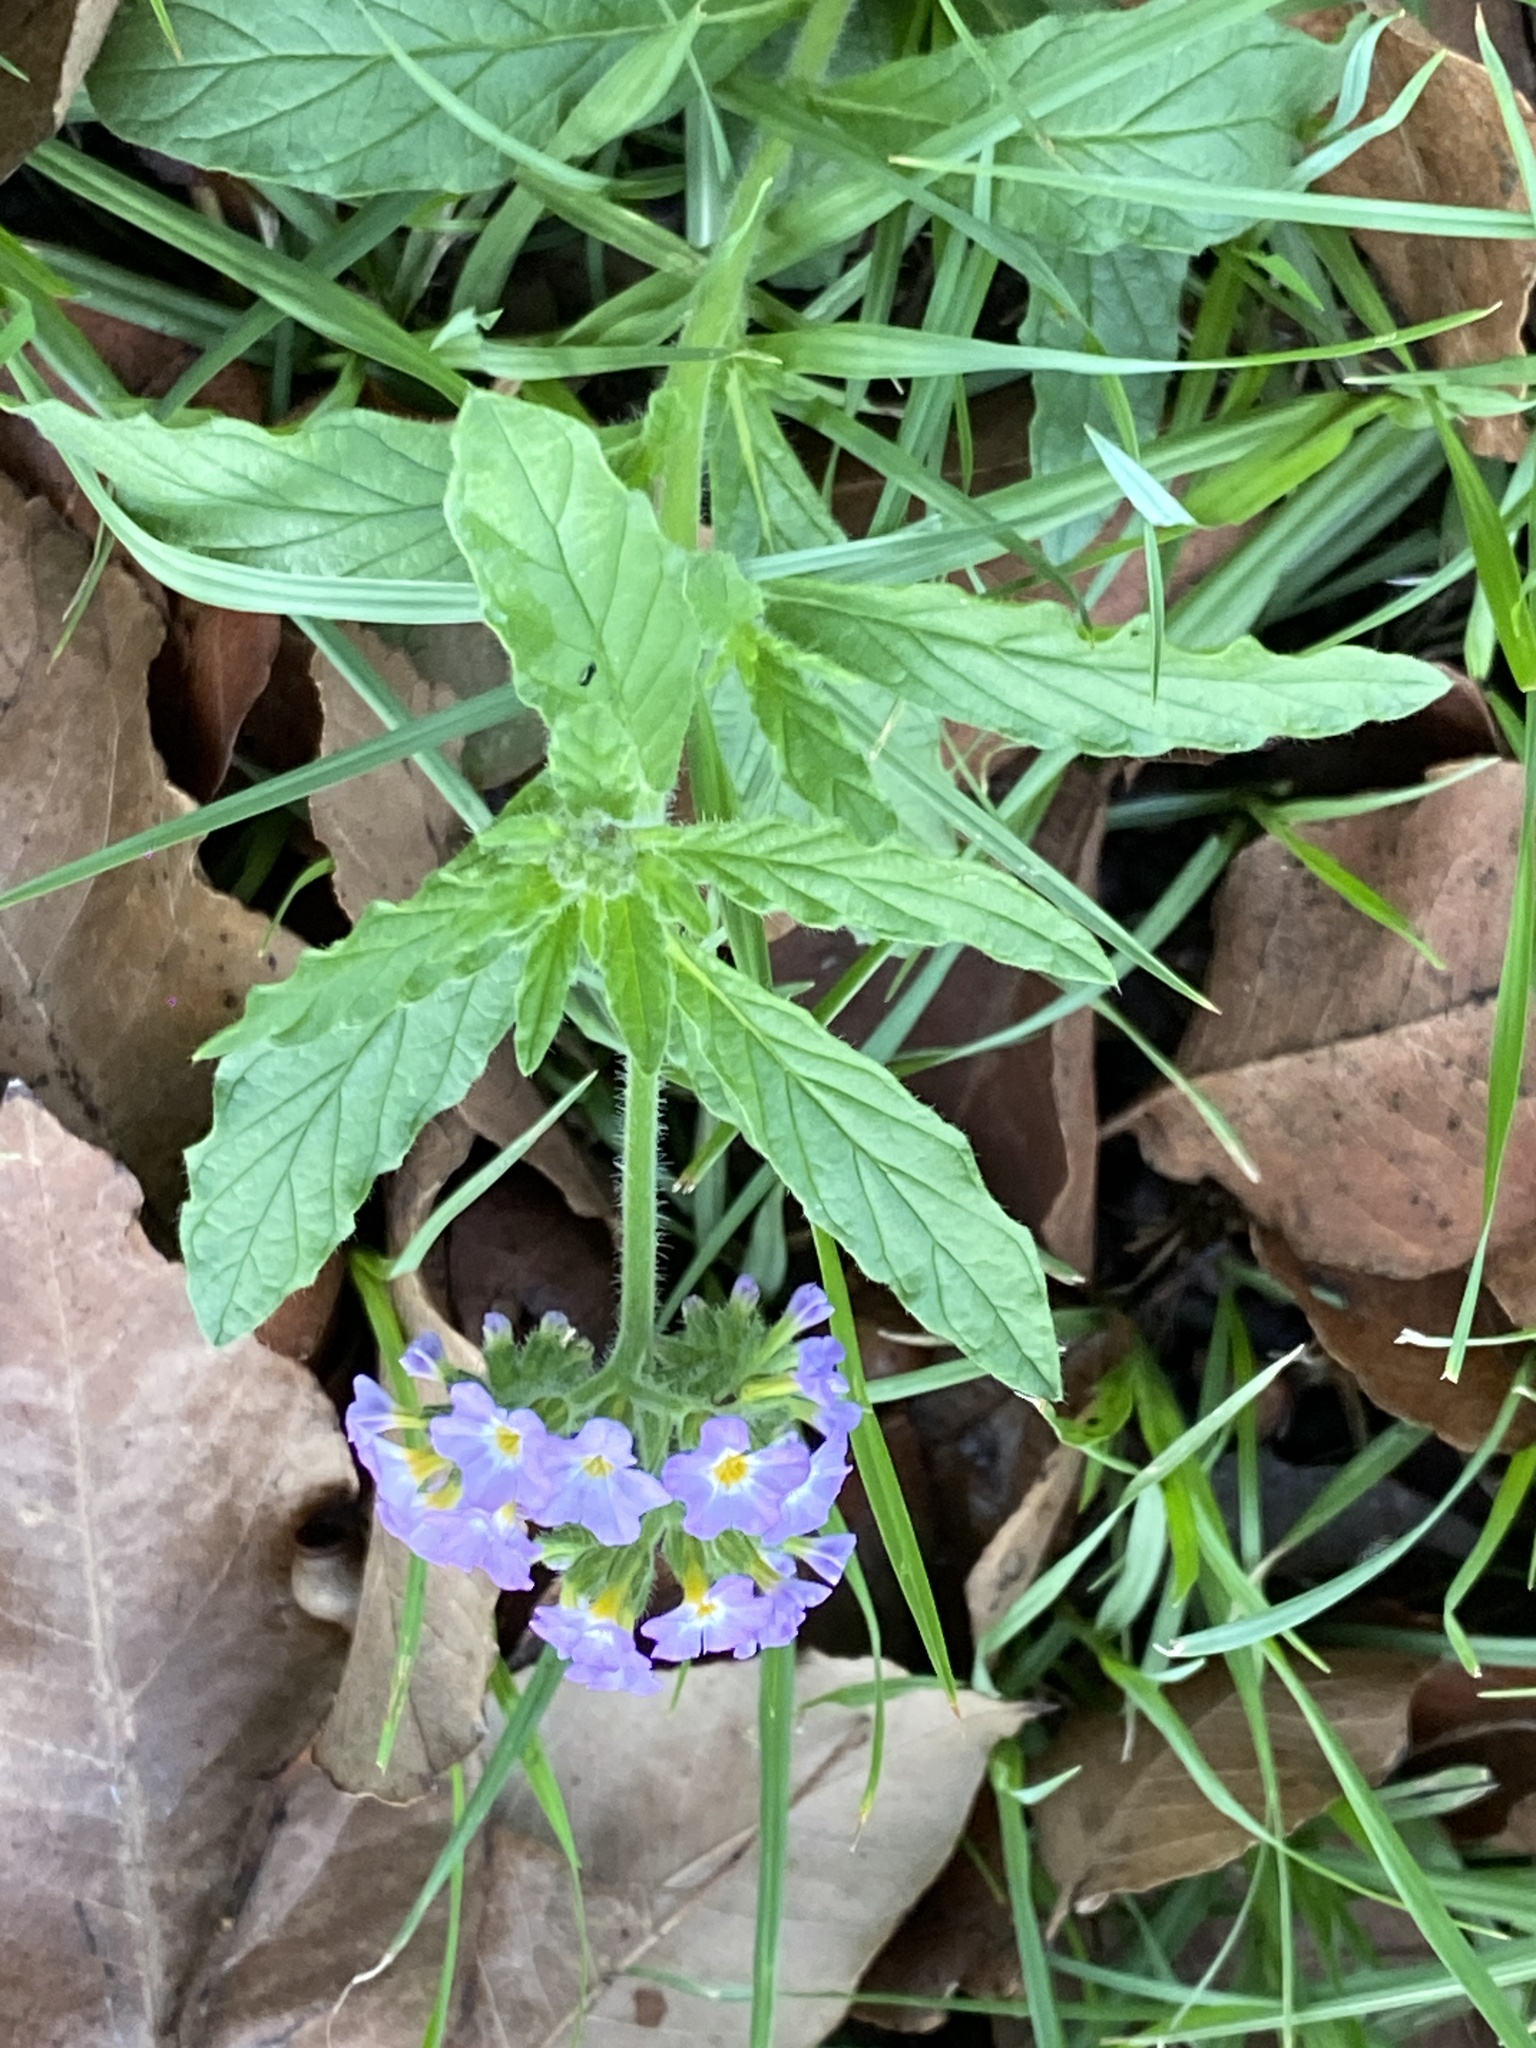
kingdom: Plantae
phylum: Tracheophyta
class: Magnoliopsida
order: Boraginales
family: Heliotropiaceae
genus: Heliotropium
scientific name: Heliotropium amplexicaule
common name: Clasping heliotrope
